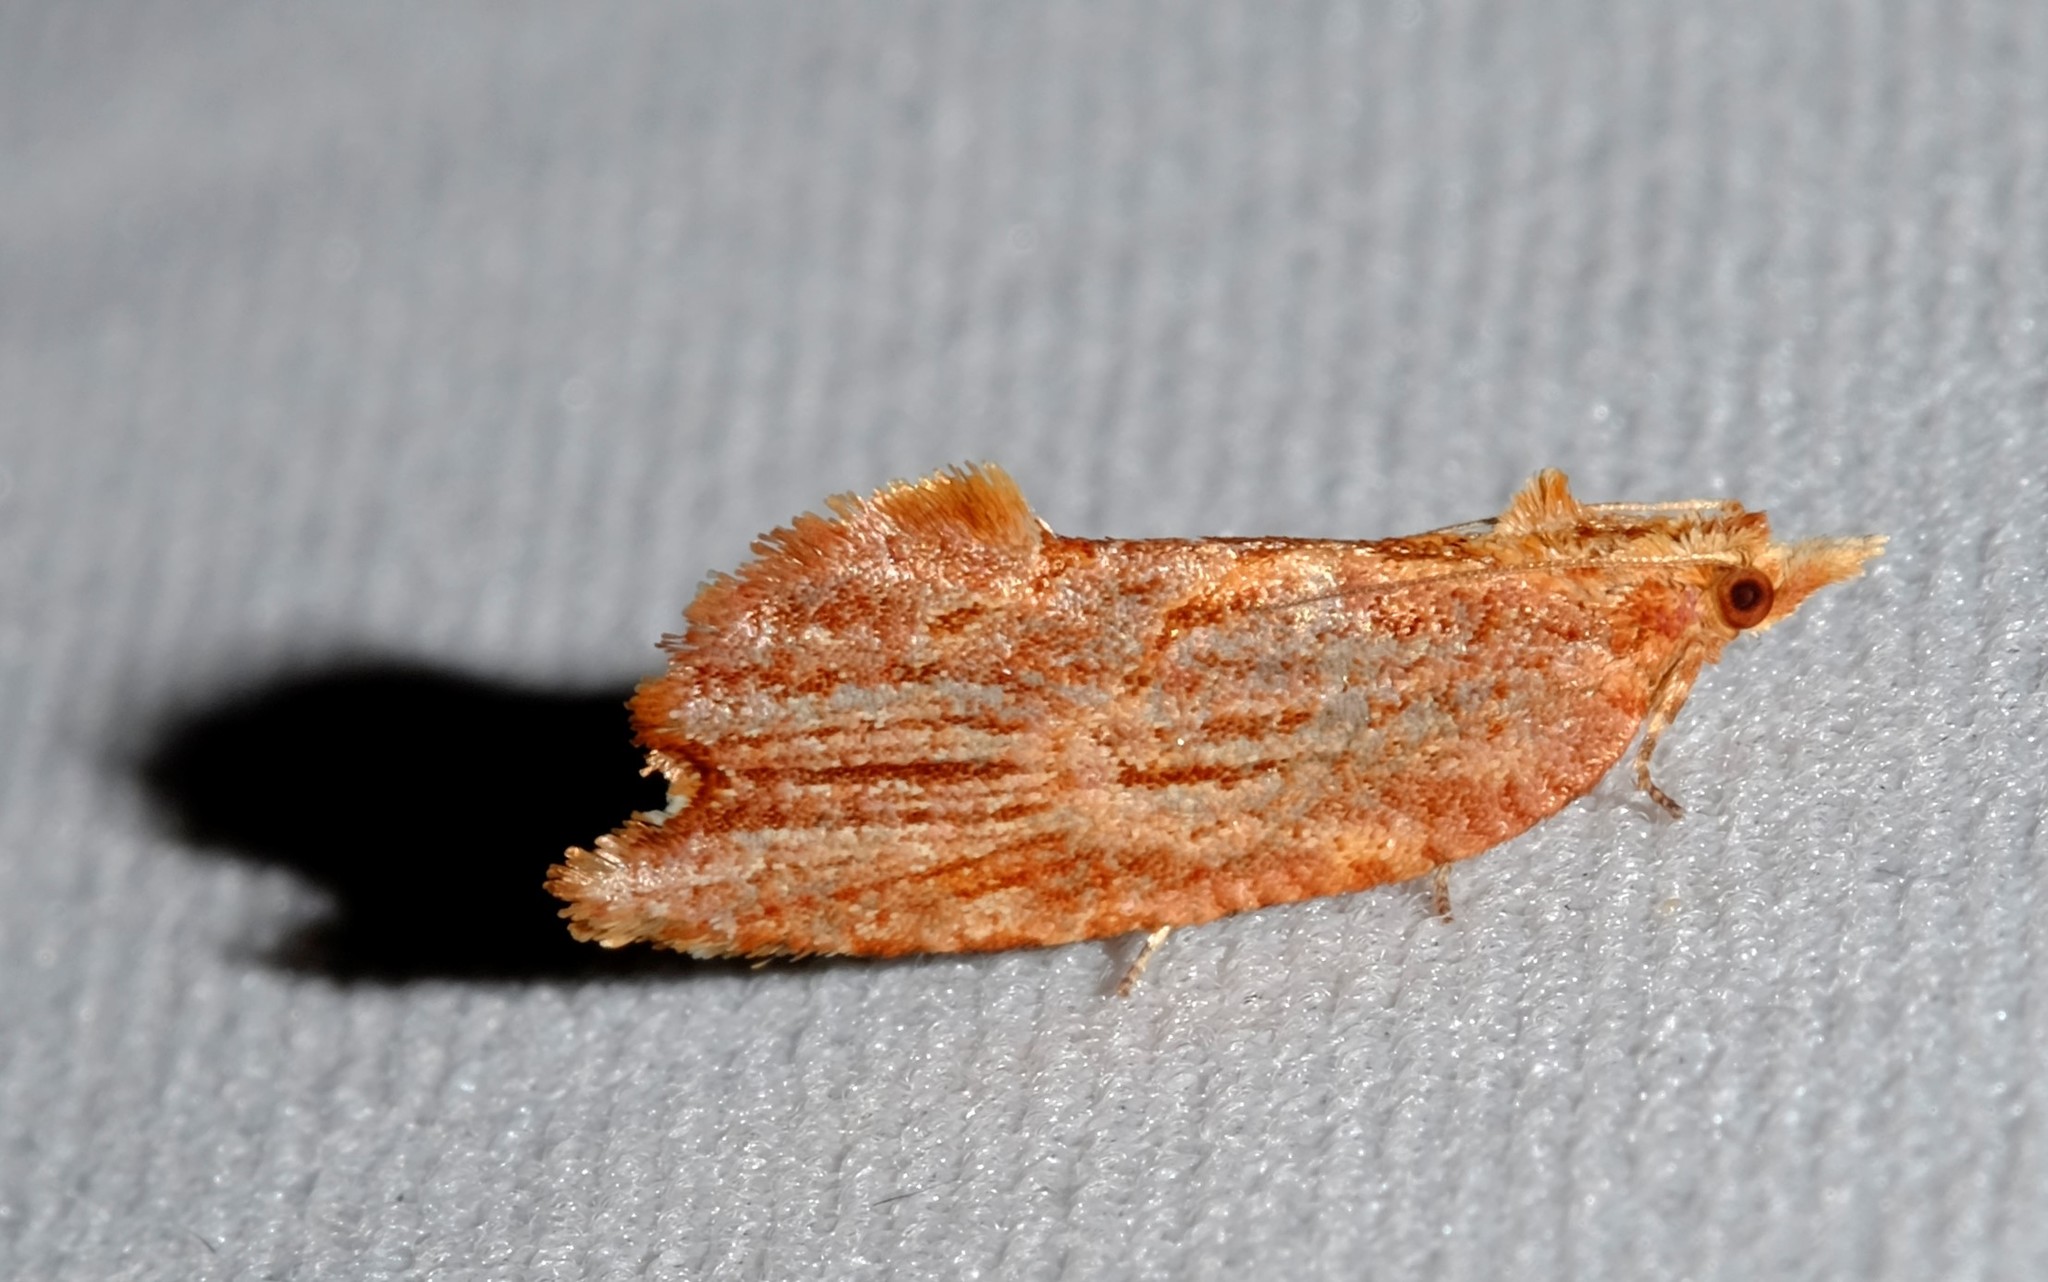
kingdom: Animalia
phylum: Arthropoda
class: Insecta
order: Lepidoptera
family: Tortricidae
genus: Glyphidoptera
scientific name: Glyphidoptera polymita
